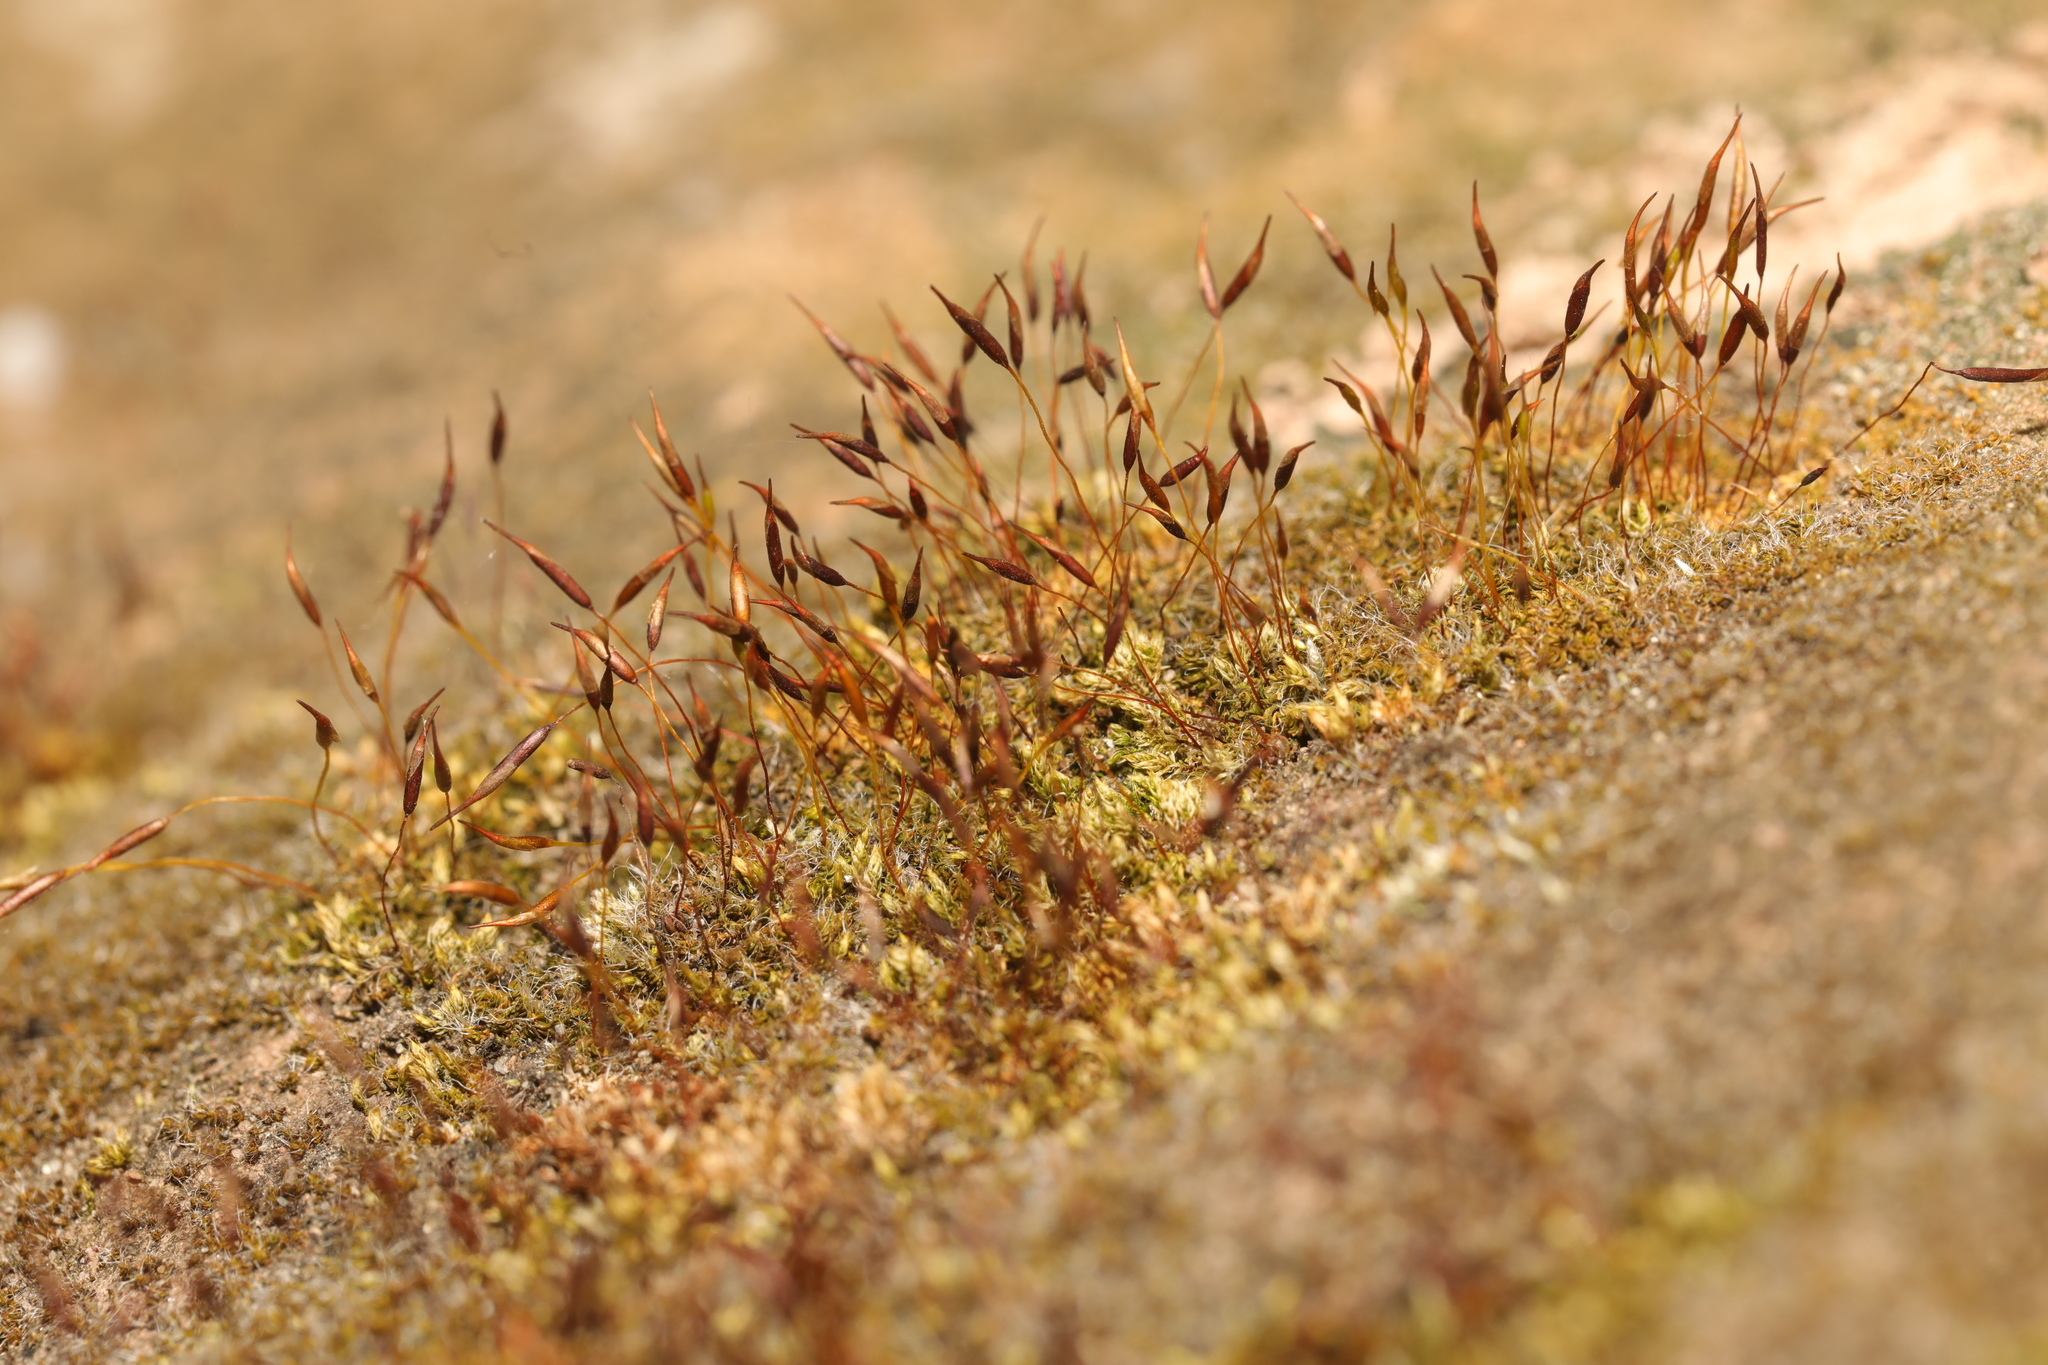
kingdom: Plantae
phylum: Bryophyta
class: Bryopsida
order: Pottiales
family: Pottiaceae
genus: Tortula
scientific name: Tortula muralis
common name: Wall screw-moss
